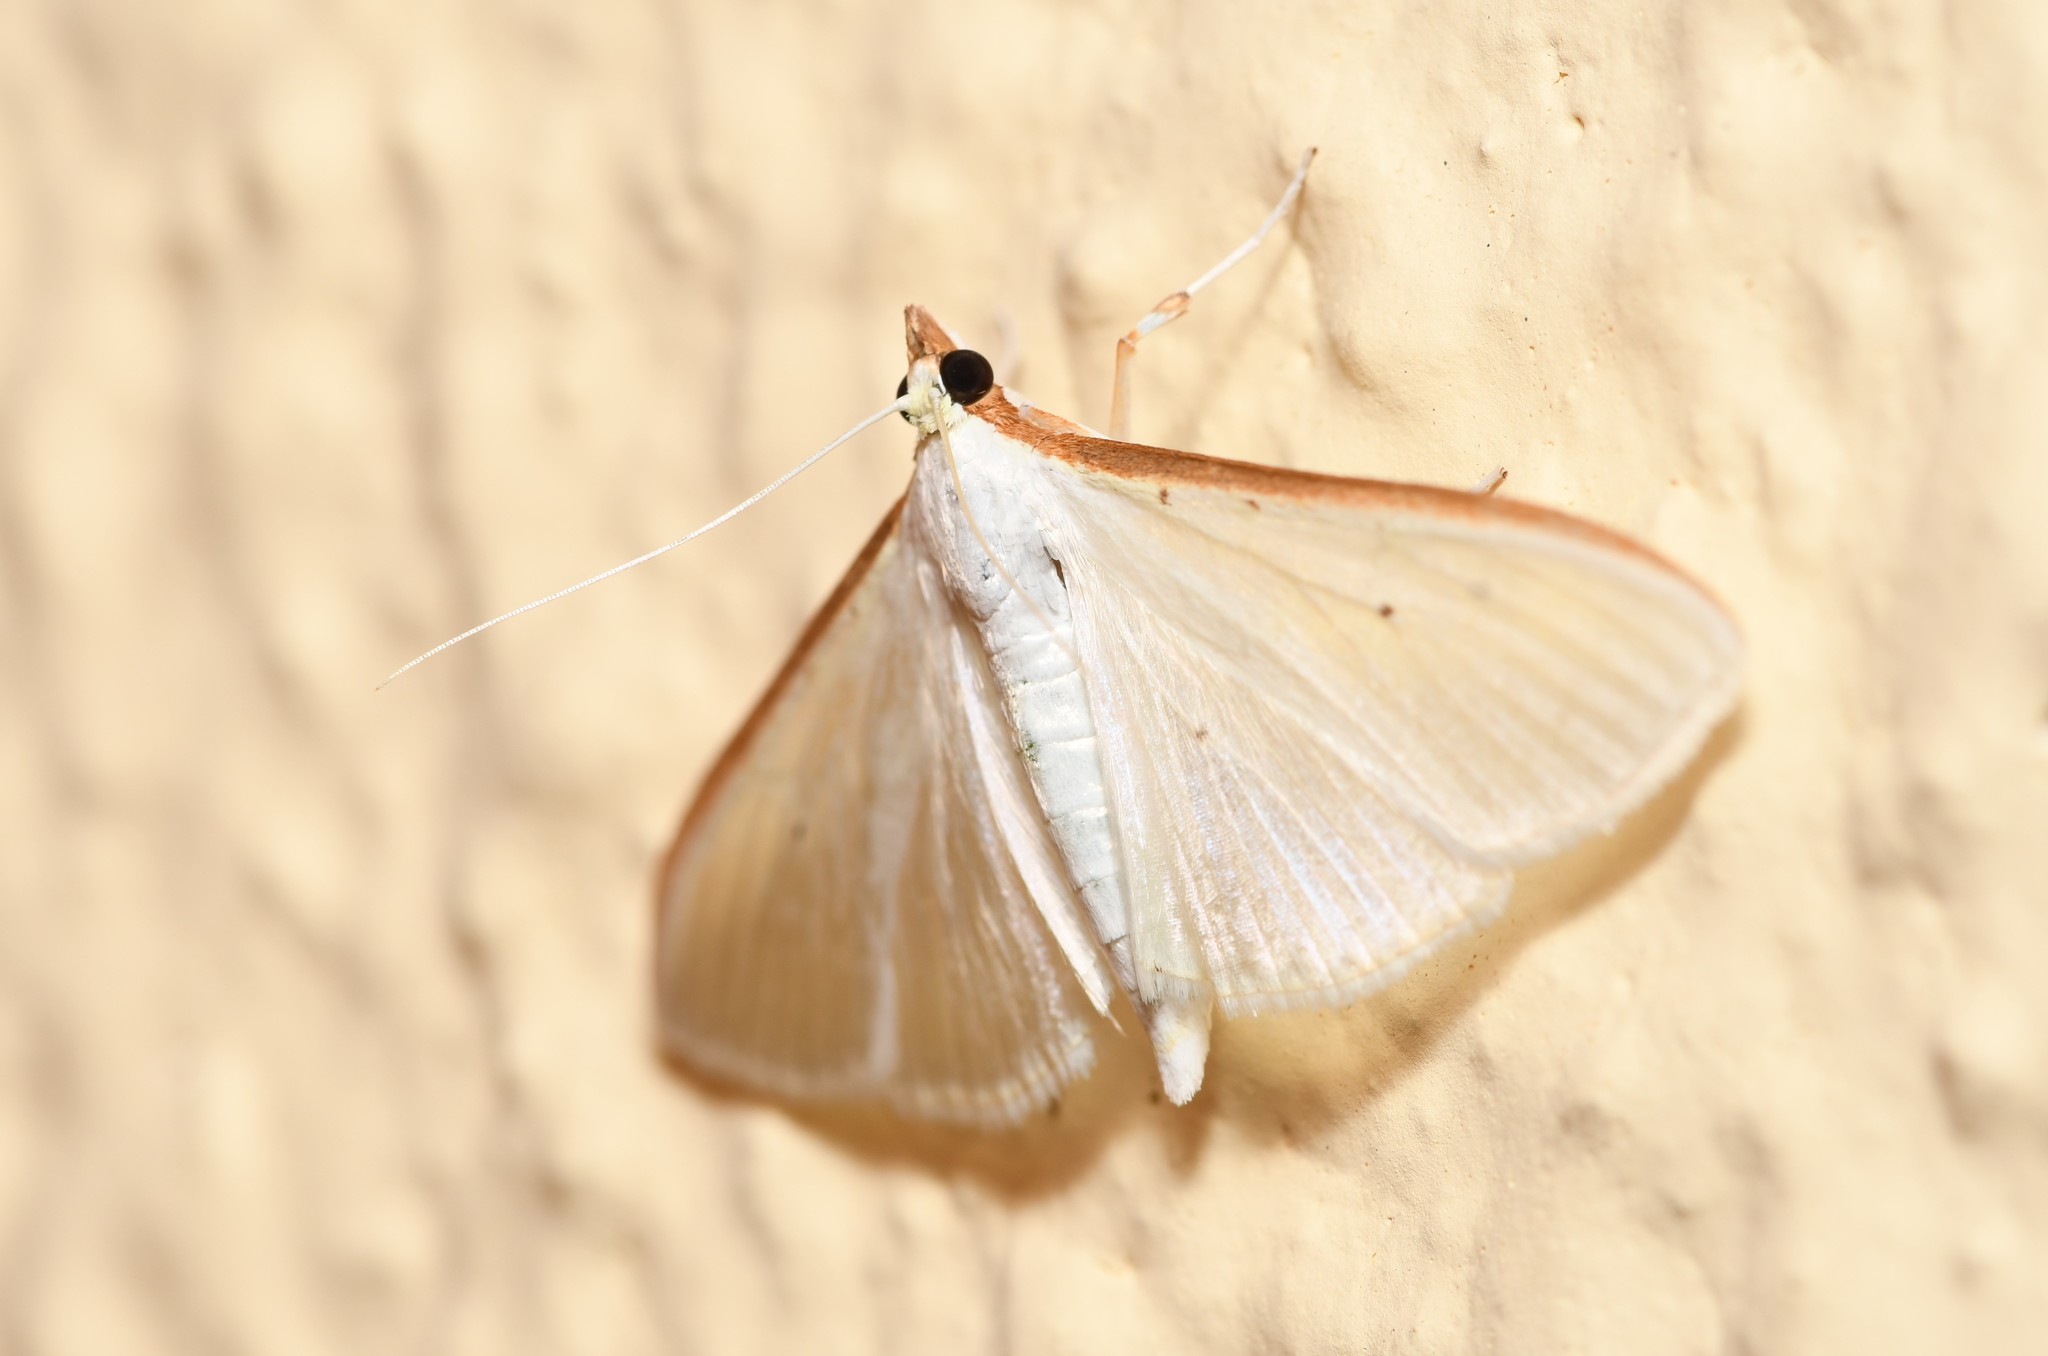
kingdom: Animalia
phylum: Arthropoda
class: Insecta
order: Lepidoptera
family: Crambidae
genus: Palpita
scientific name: Palpita vitrealis
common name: Olive-tree pearl
